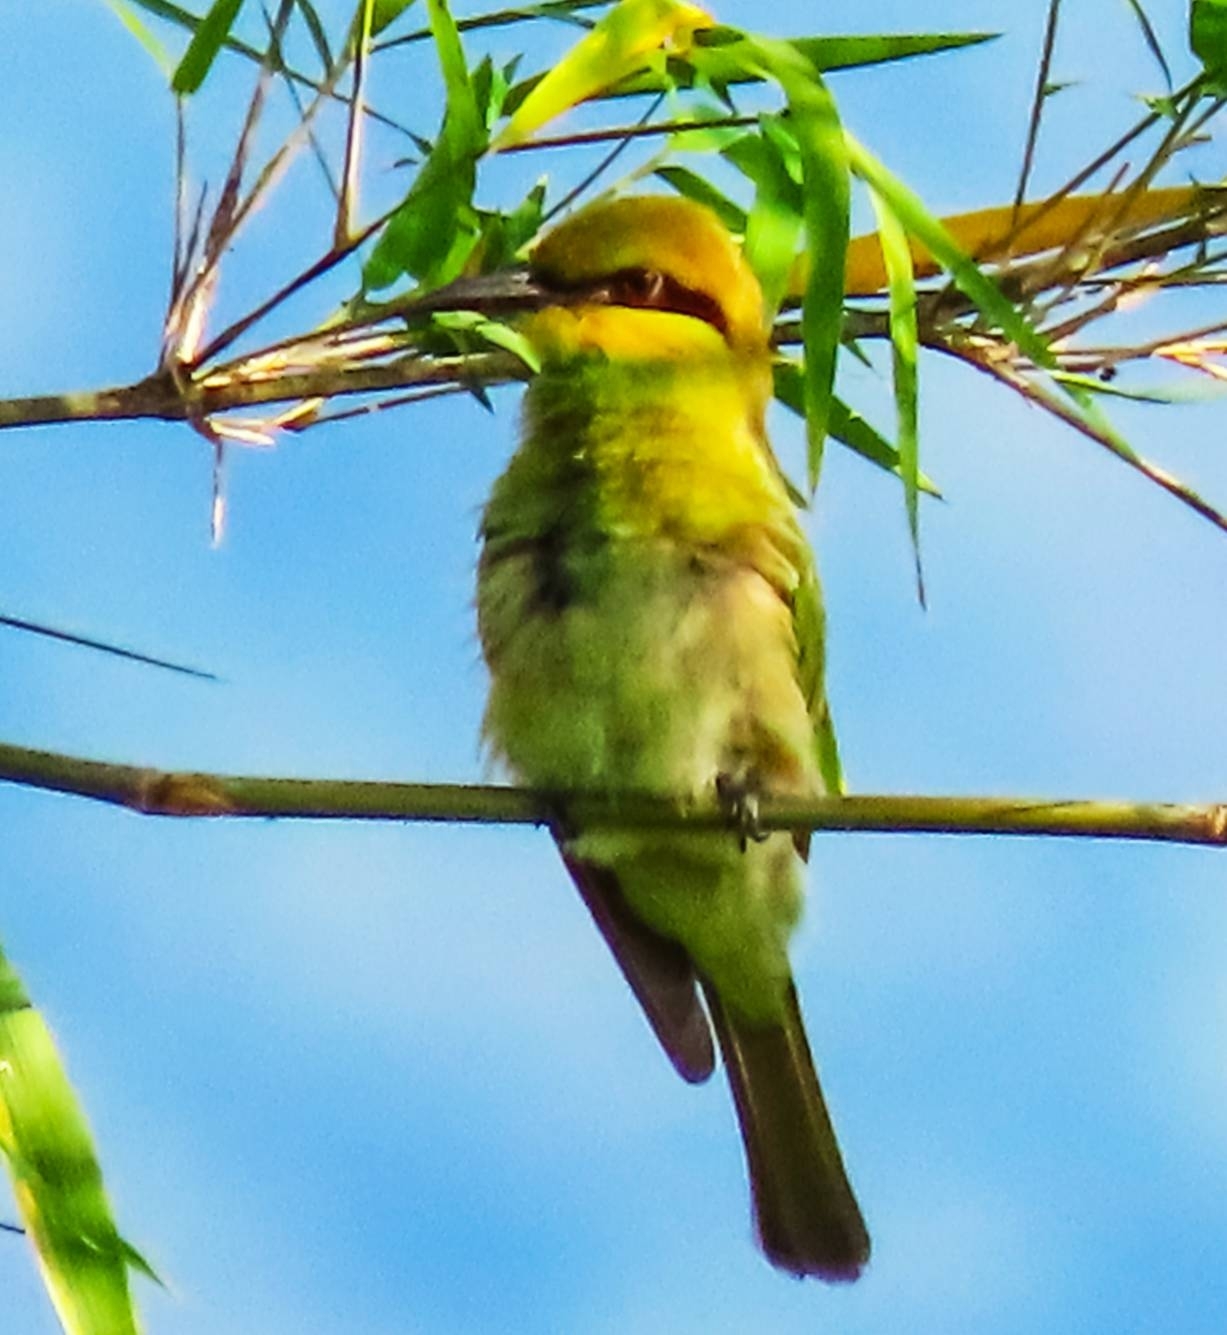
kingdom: Animalia
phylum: Chordata
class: Aves
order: Coraciiformes
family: Meropidae
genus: Merops
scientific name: Merops orientalis
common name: Green bee-eater
